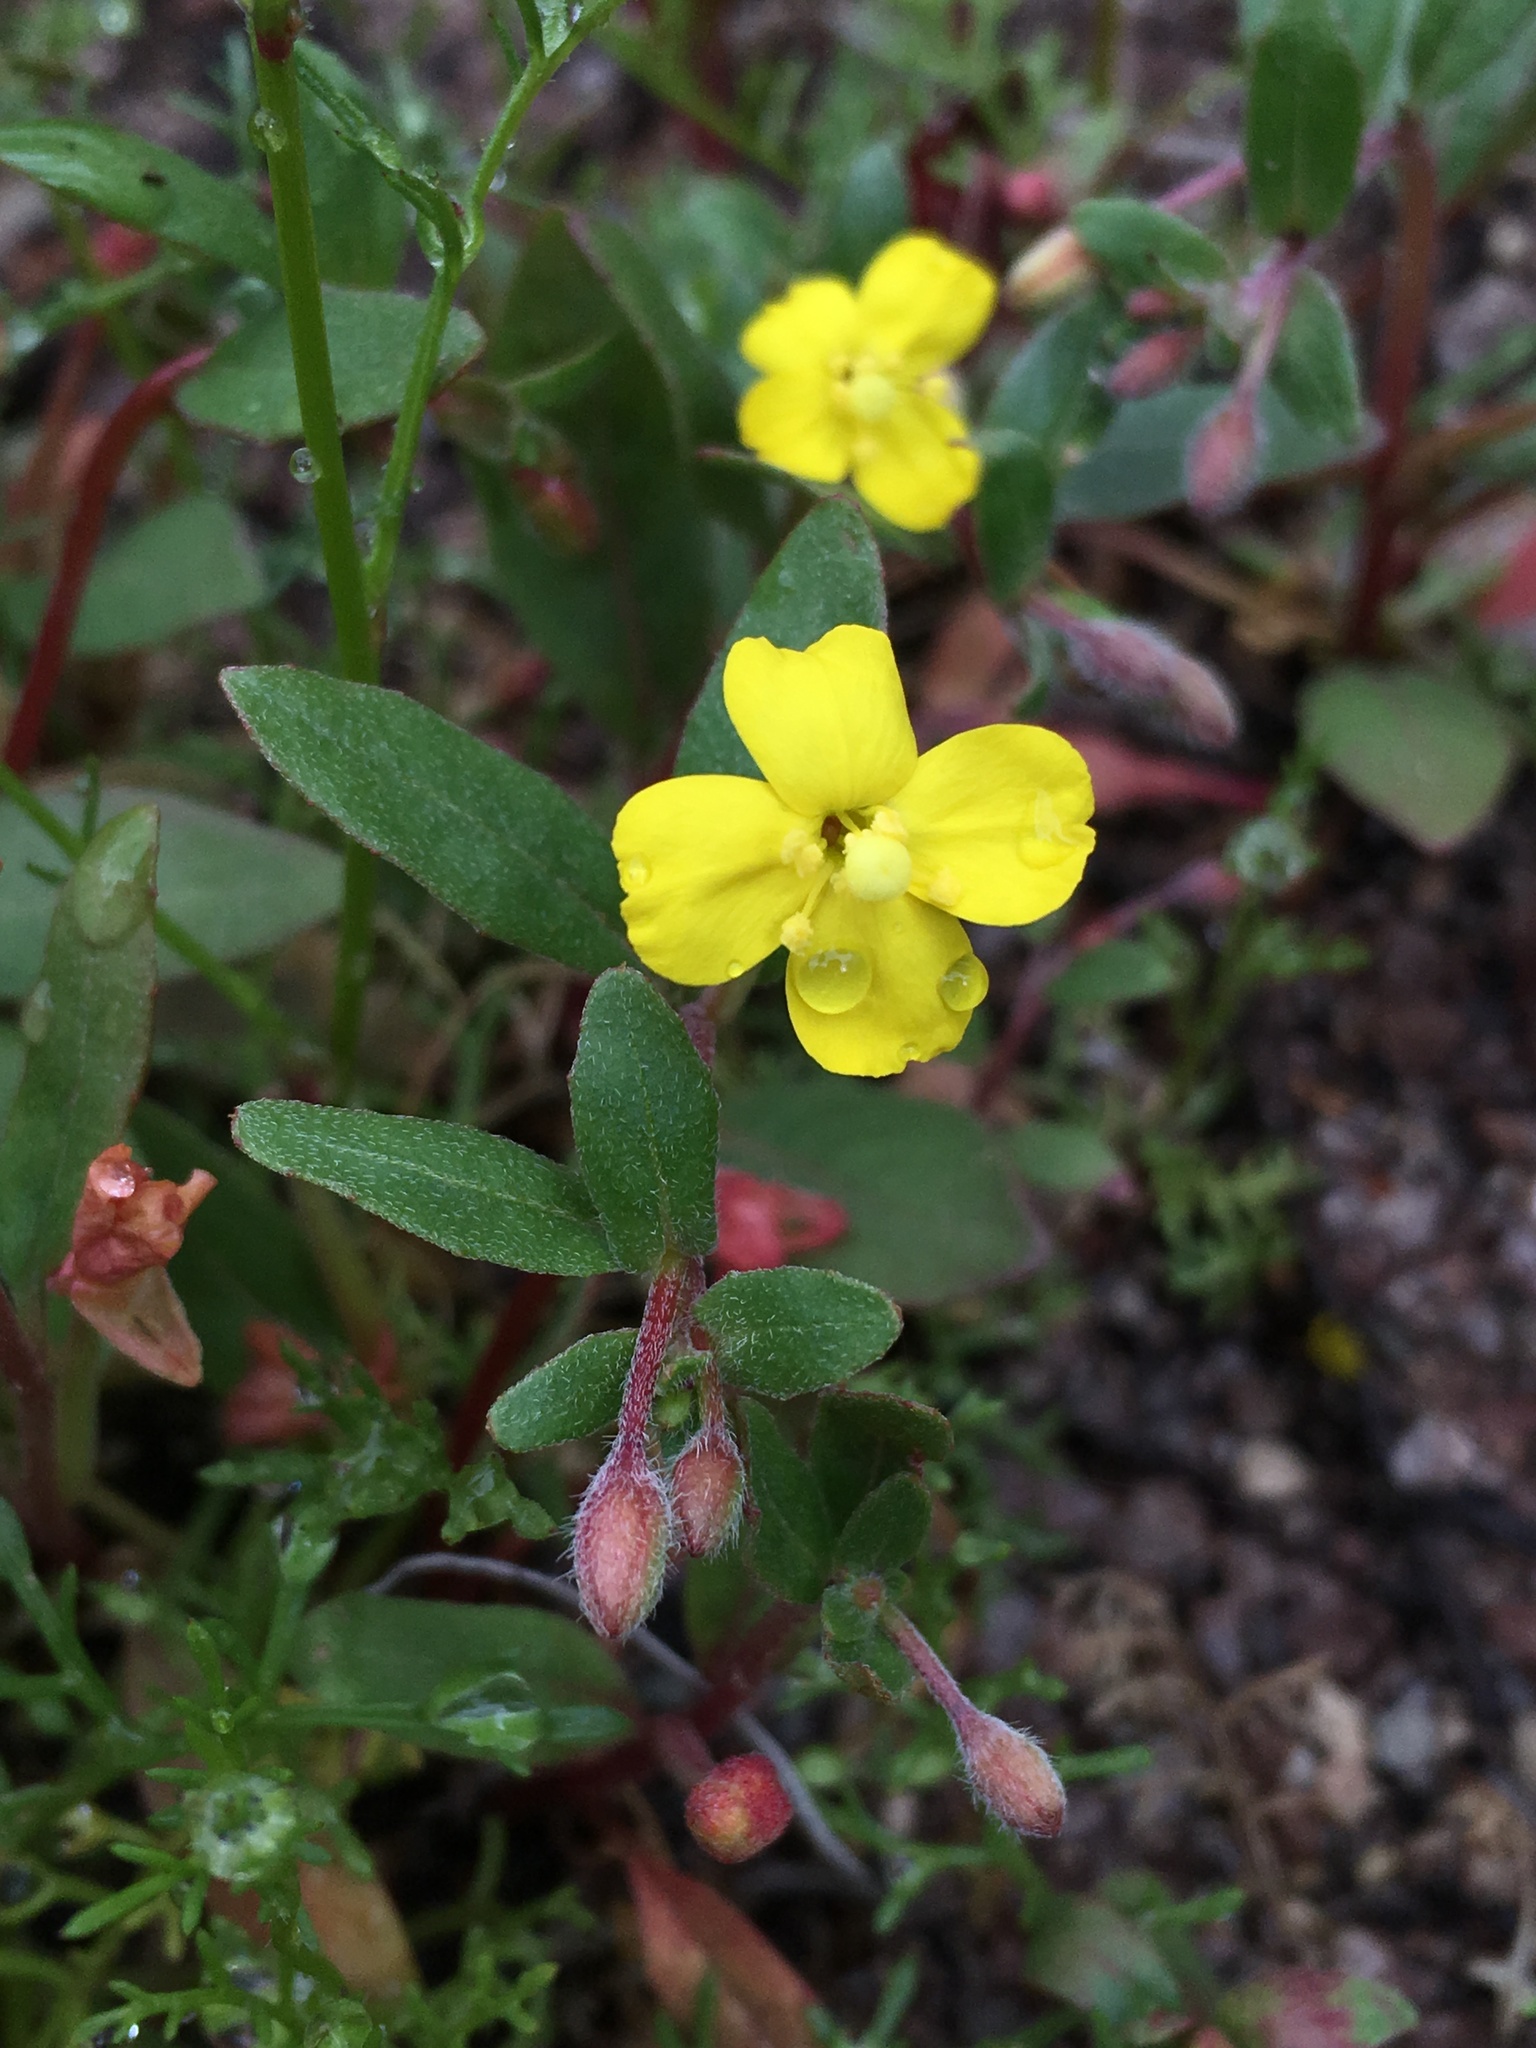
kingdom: Plantae
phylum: Tracheophyta
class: Magnoliopsida
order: Myrtales
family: Onagraceae
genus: Camissoniopsis
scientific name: Camissoniopsis ignota
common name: Jurupa hills suncup
